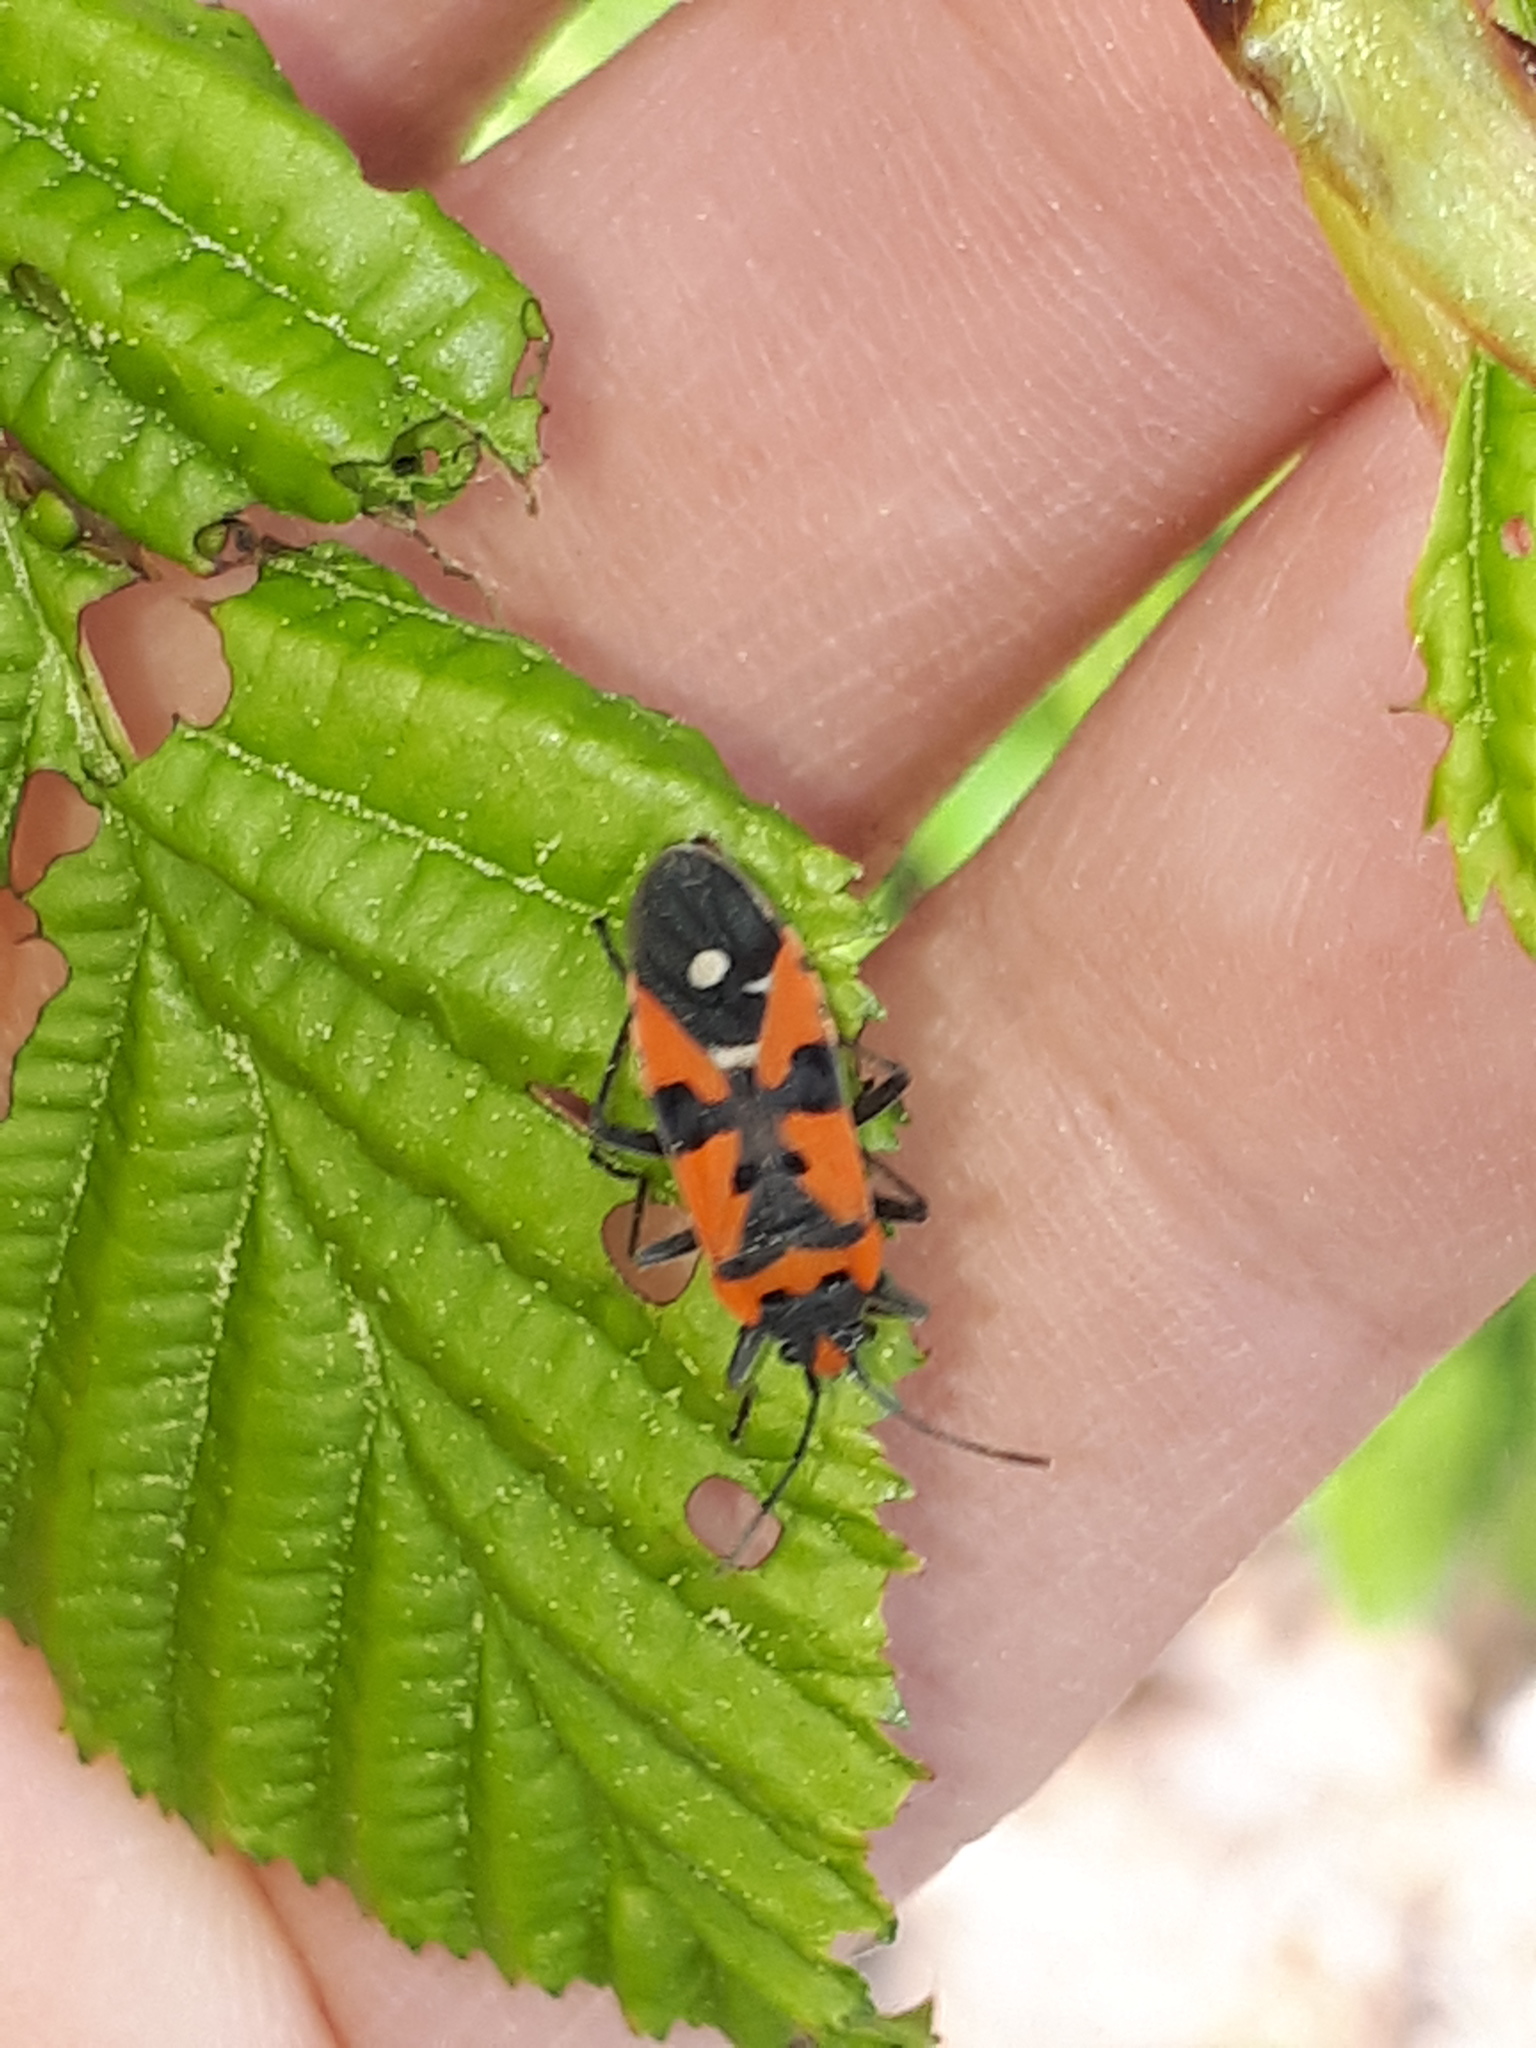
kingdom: Animalia
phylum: Arthropoda
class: Insecta
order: Hemiptera
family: Lygaeidae
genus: Lygaeus
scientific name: Lygaeus equestris
